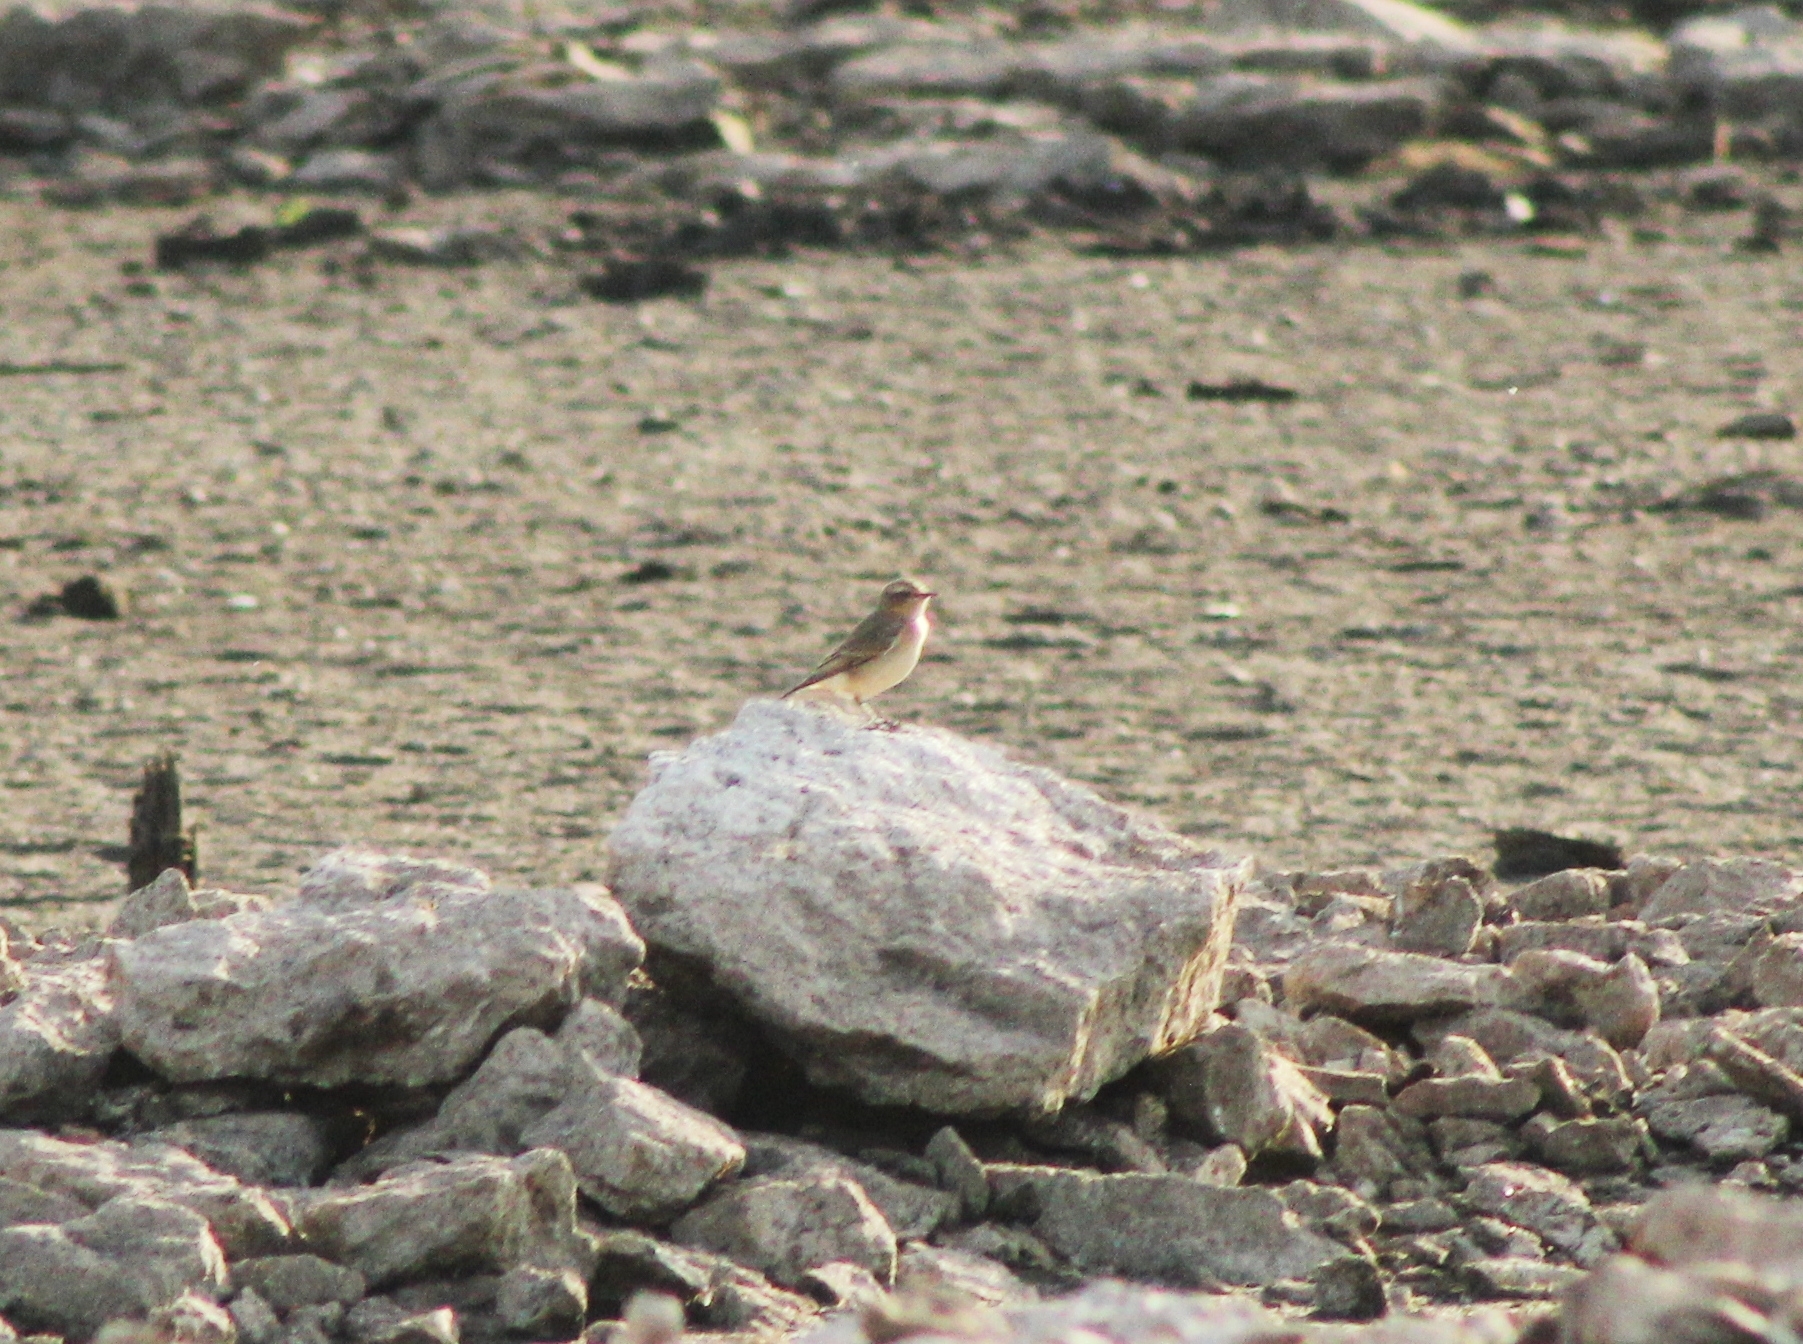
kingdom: Animalia
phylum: Chordata
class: Aves
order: Passeriformes
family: Muscicapidae
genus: Oenanthe
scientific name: Oenanthe oenanthe
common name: Northern wheatear
